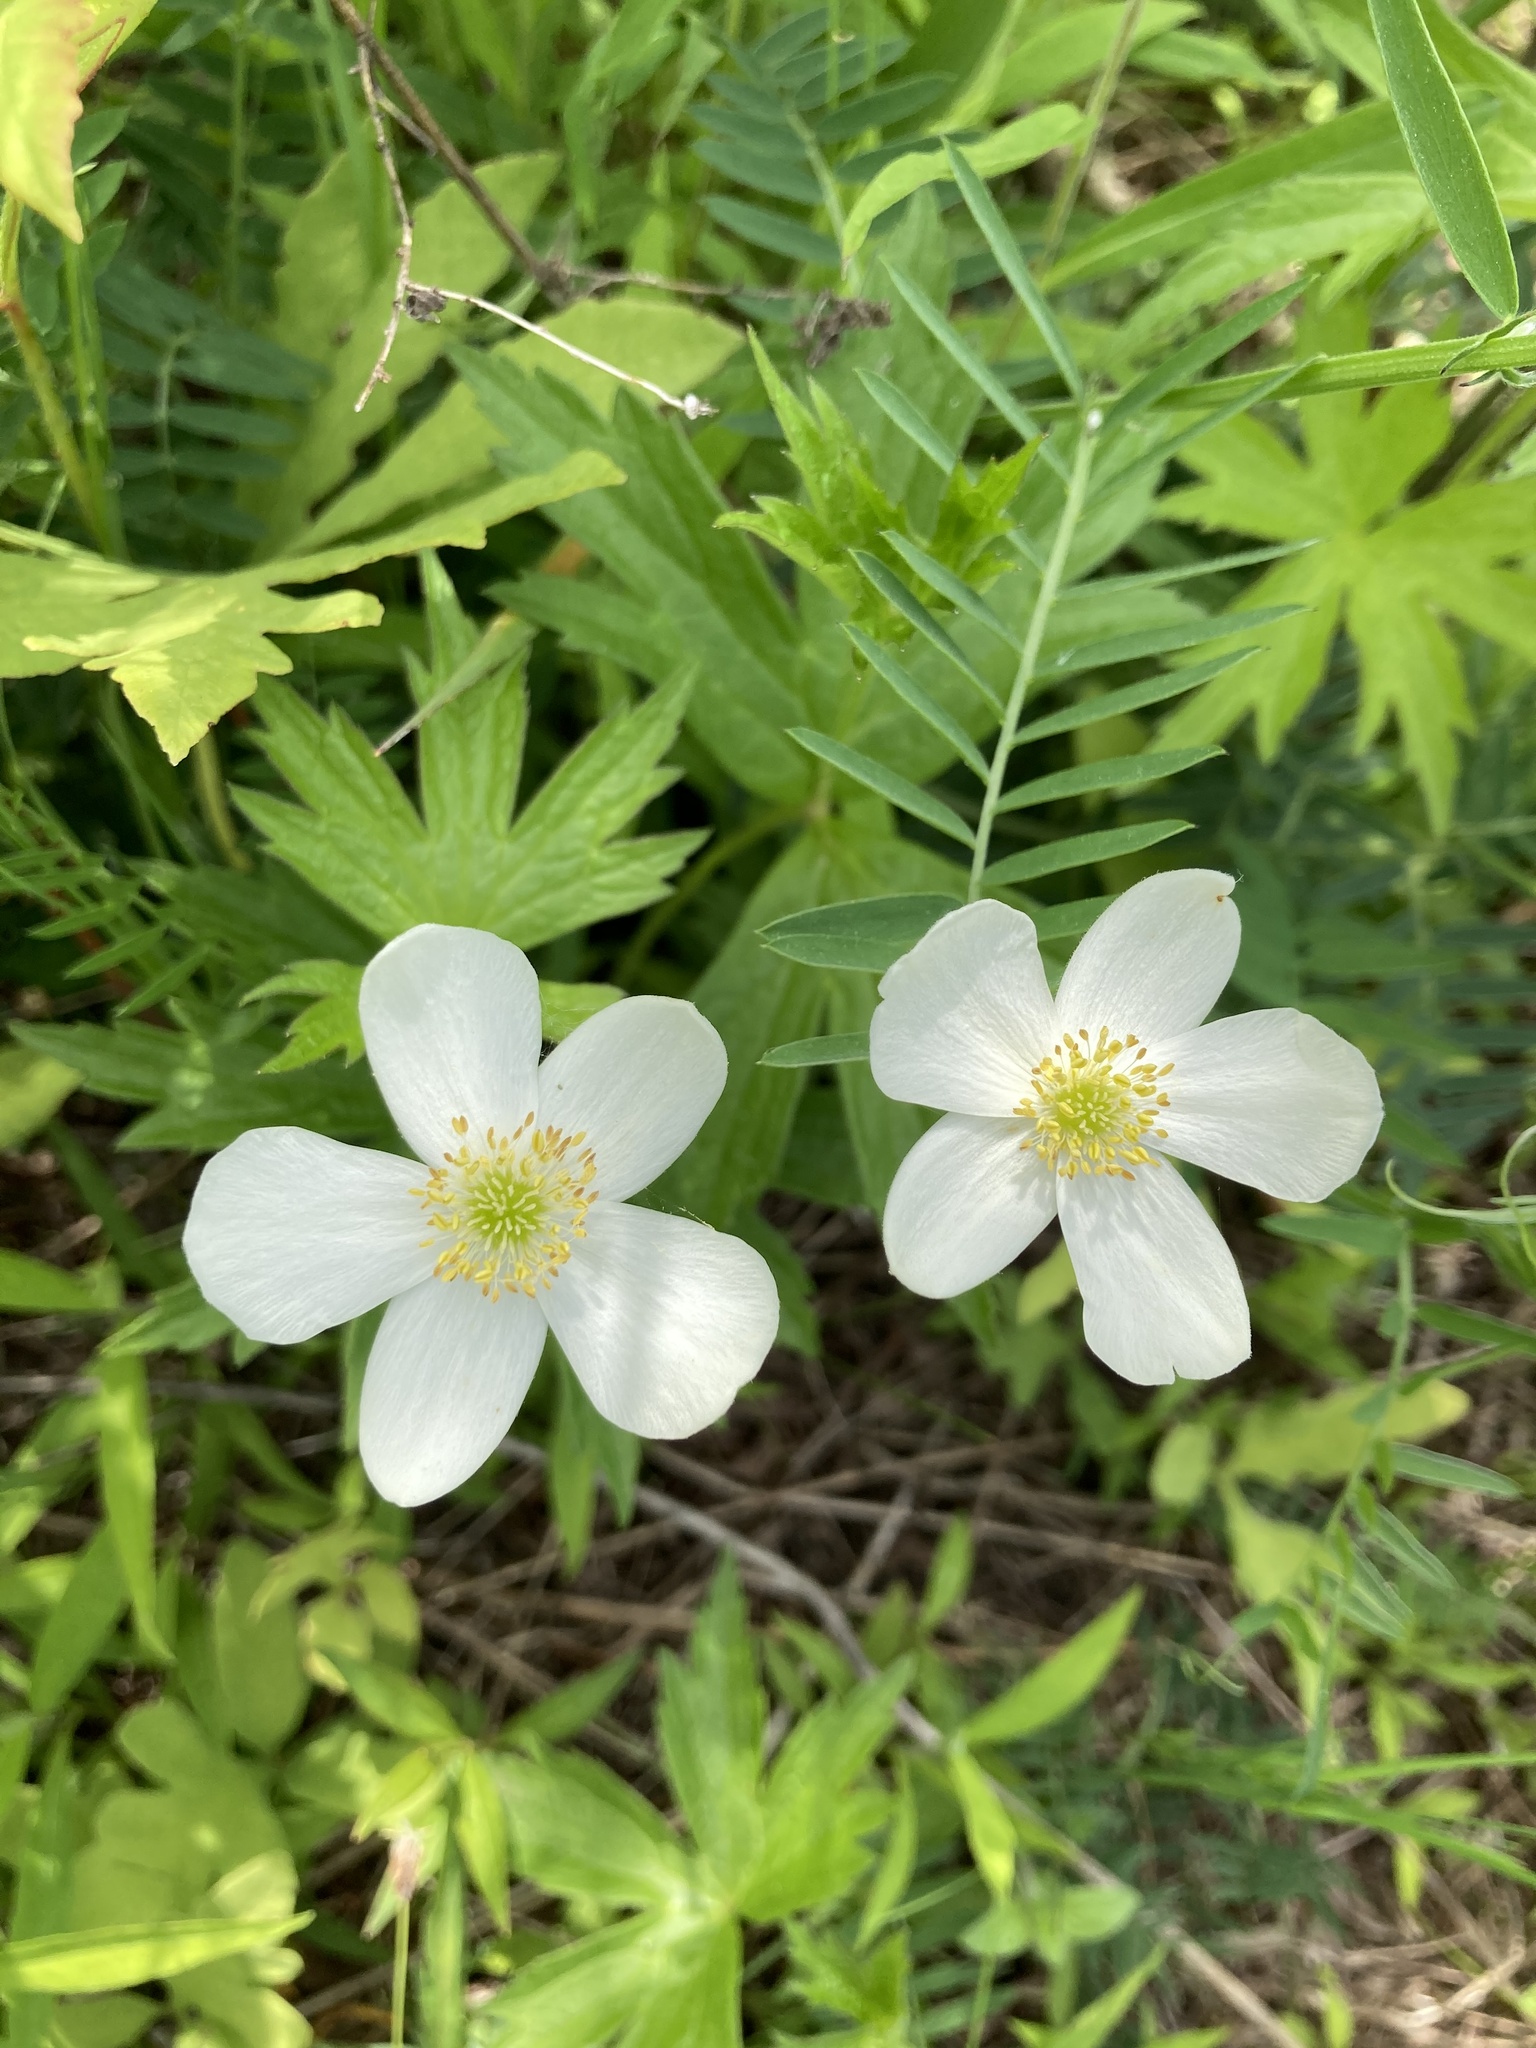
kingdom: Plantae
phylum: Tracheophyta
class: Magnoliopsida
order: Ranunculales
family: Ranunculaceae
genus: Anemonastrum
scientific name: Anemonastrum canadense
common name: Canada anemone
